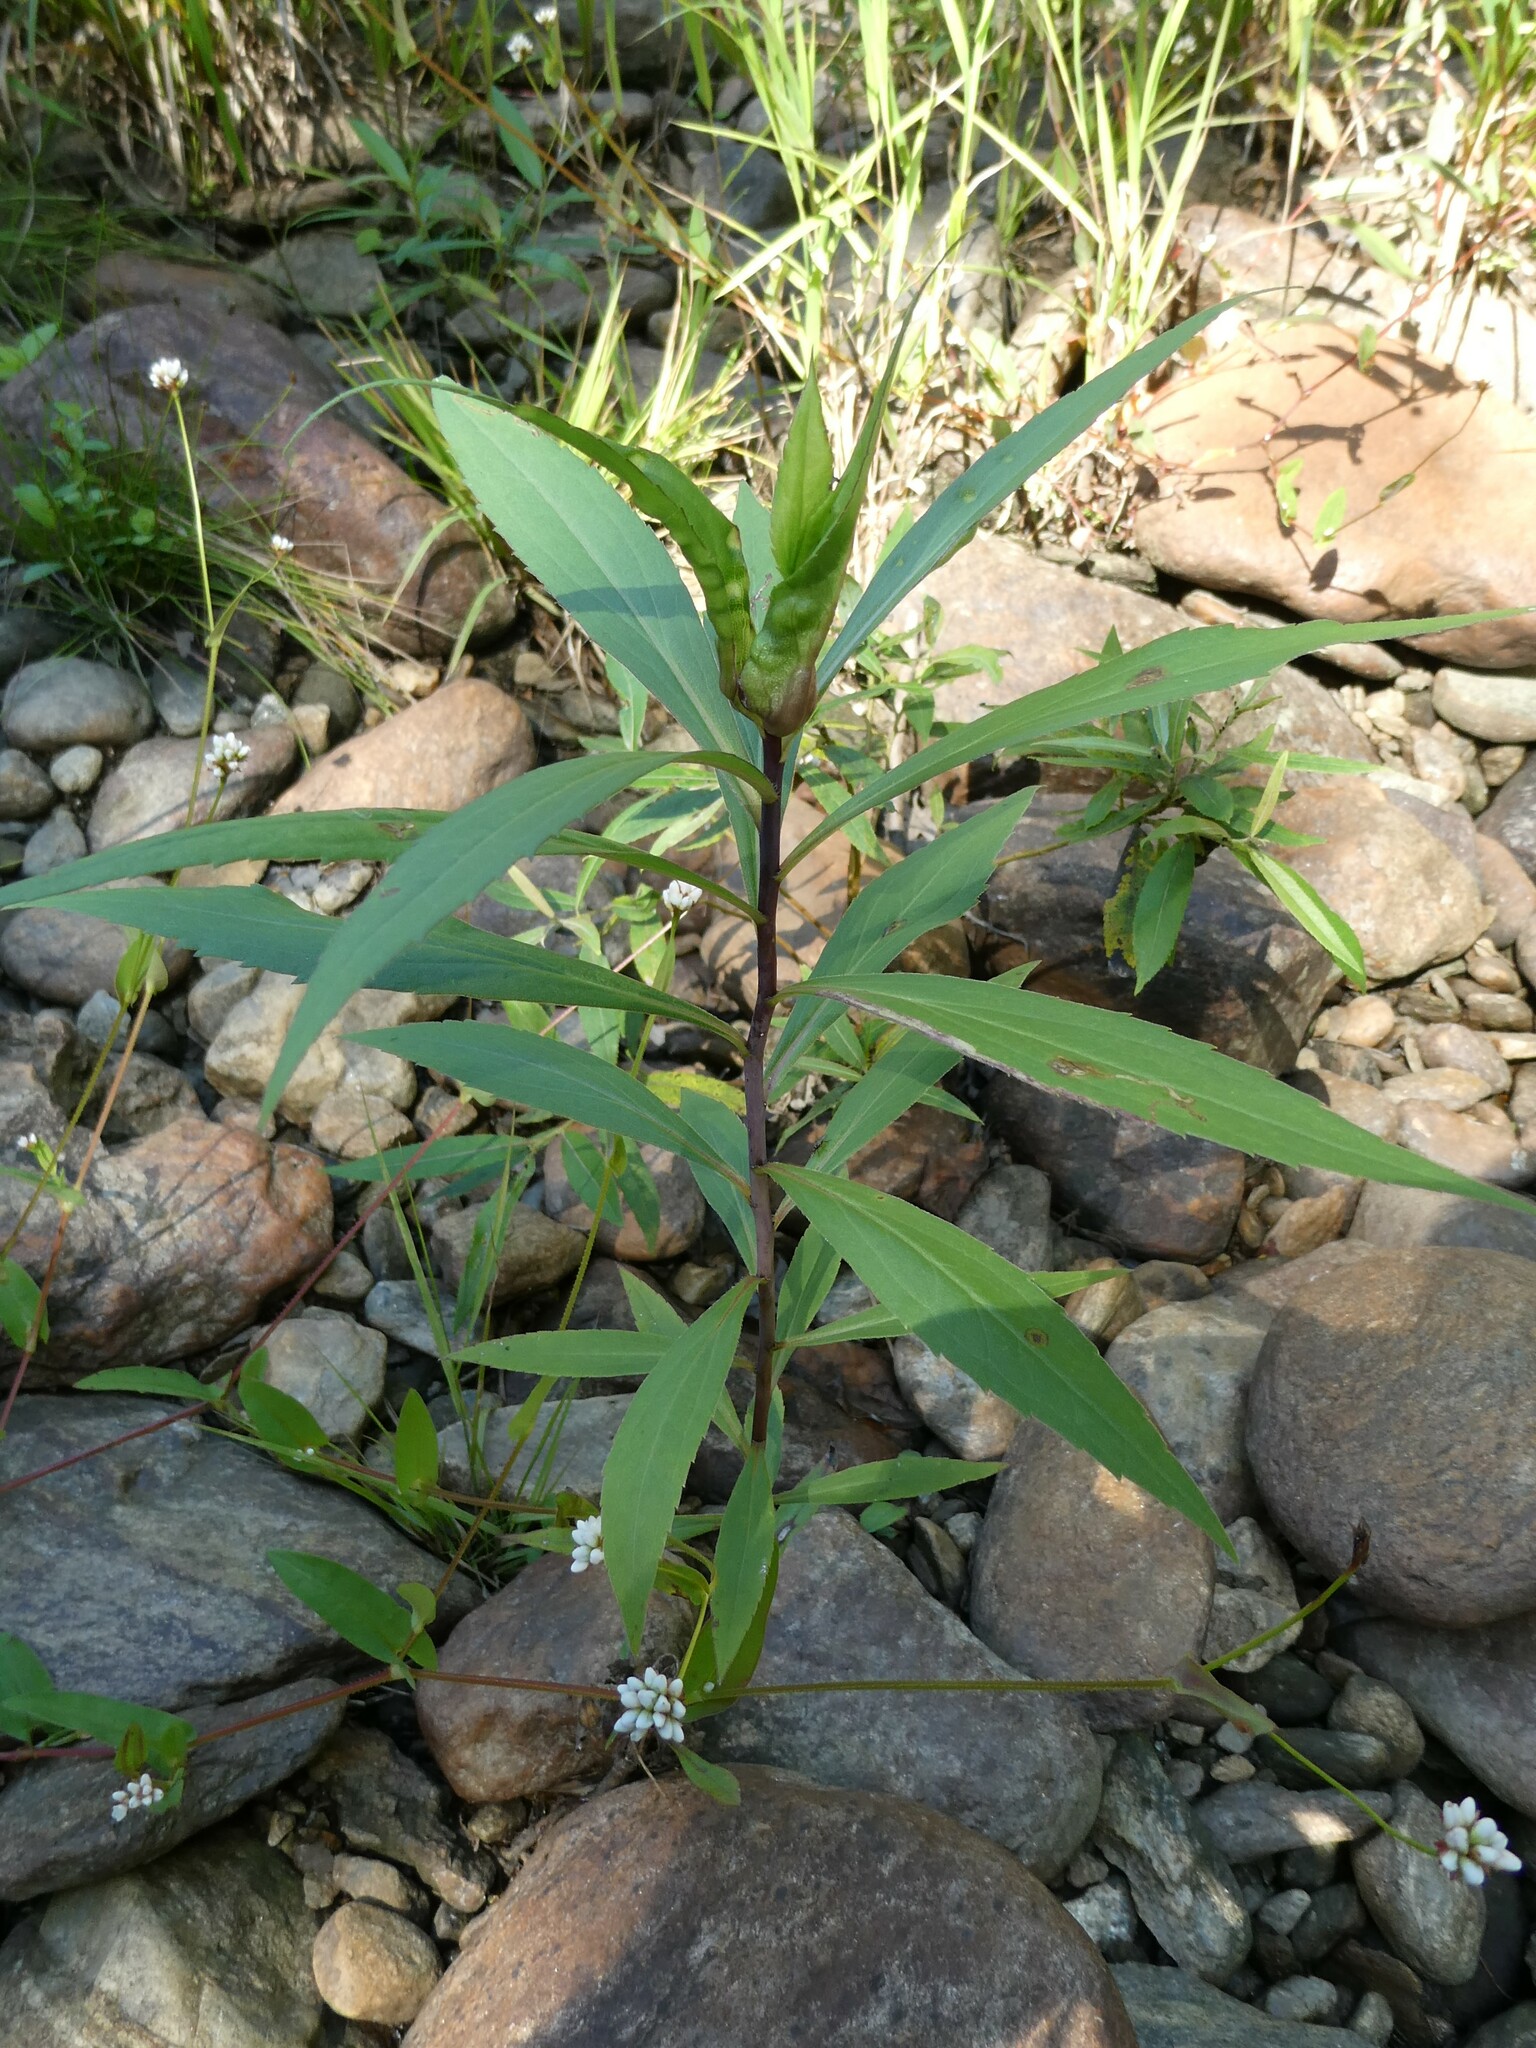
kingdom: Animalia
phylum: Arthropoda
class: Insecta
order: Diptera
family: Cecidomyiidae
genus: Dasineura
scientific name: Dasineura folliculi
